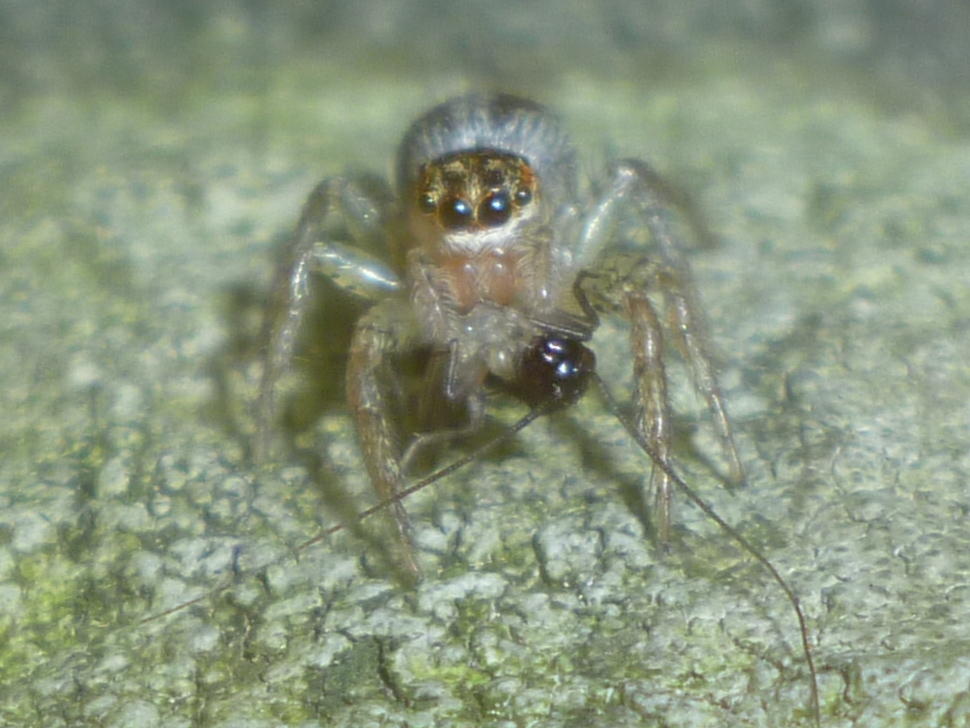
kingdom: Animalia
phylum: Arthropoda
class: Arachnida
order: Araneae
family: Salticidae
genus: Maevia
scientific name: Maevia inclemens
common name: Dimorphic jumper
